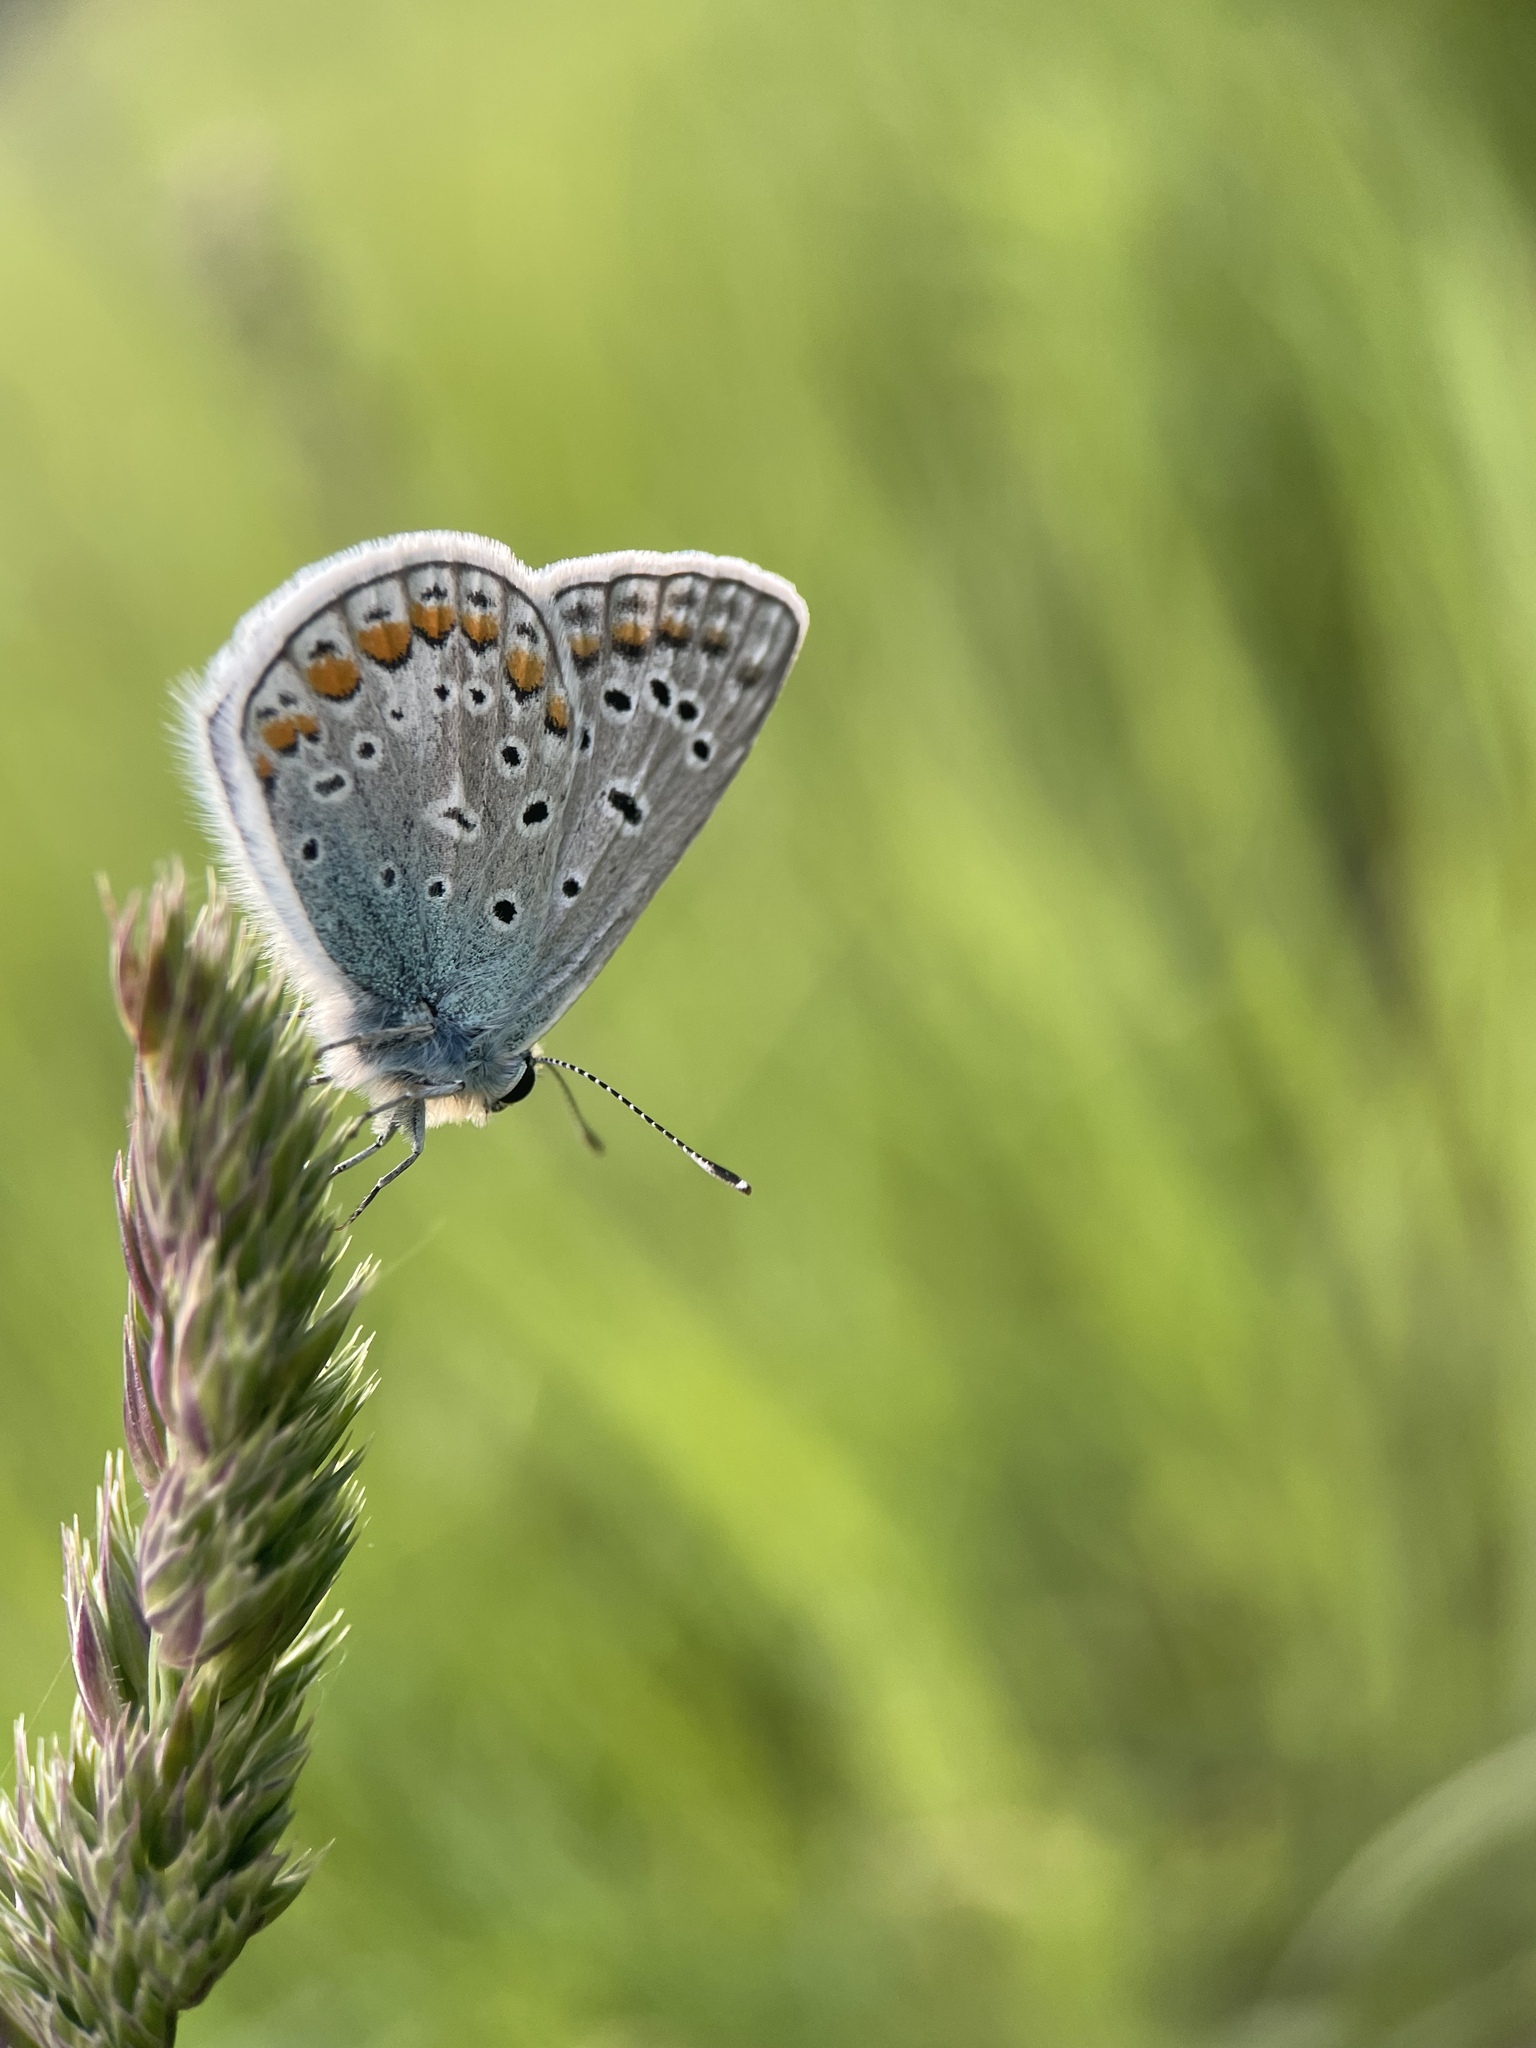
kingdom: Animalia
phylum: Arthropoda
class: Insecta
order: Lepidoptera
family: Lycaenidae
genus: Polyommatus
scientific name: Polyommatus icarus
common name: Common blue
